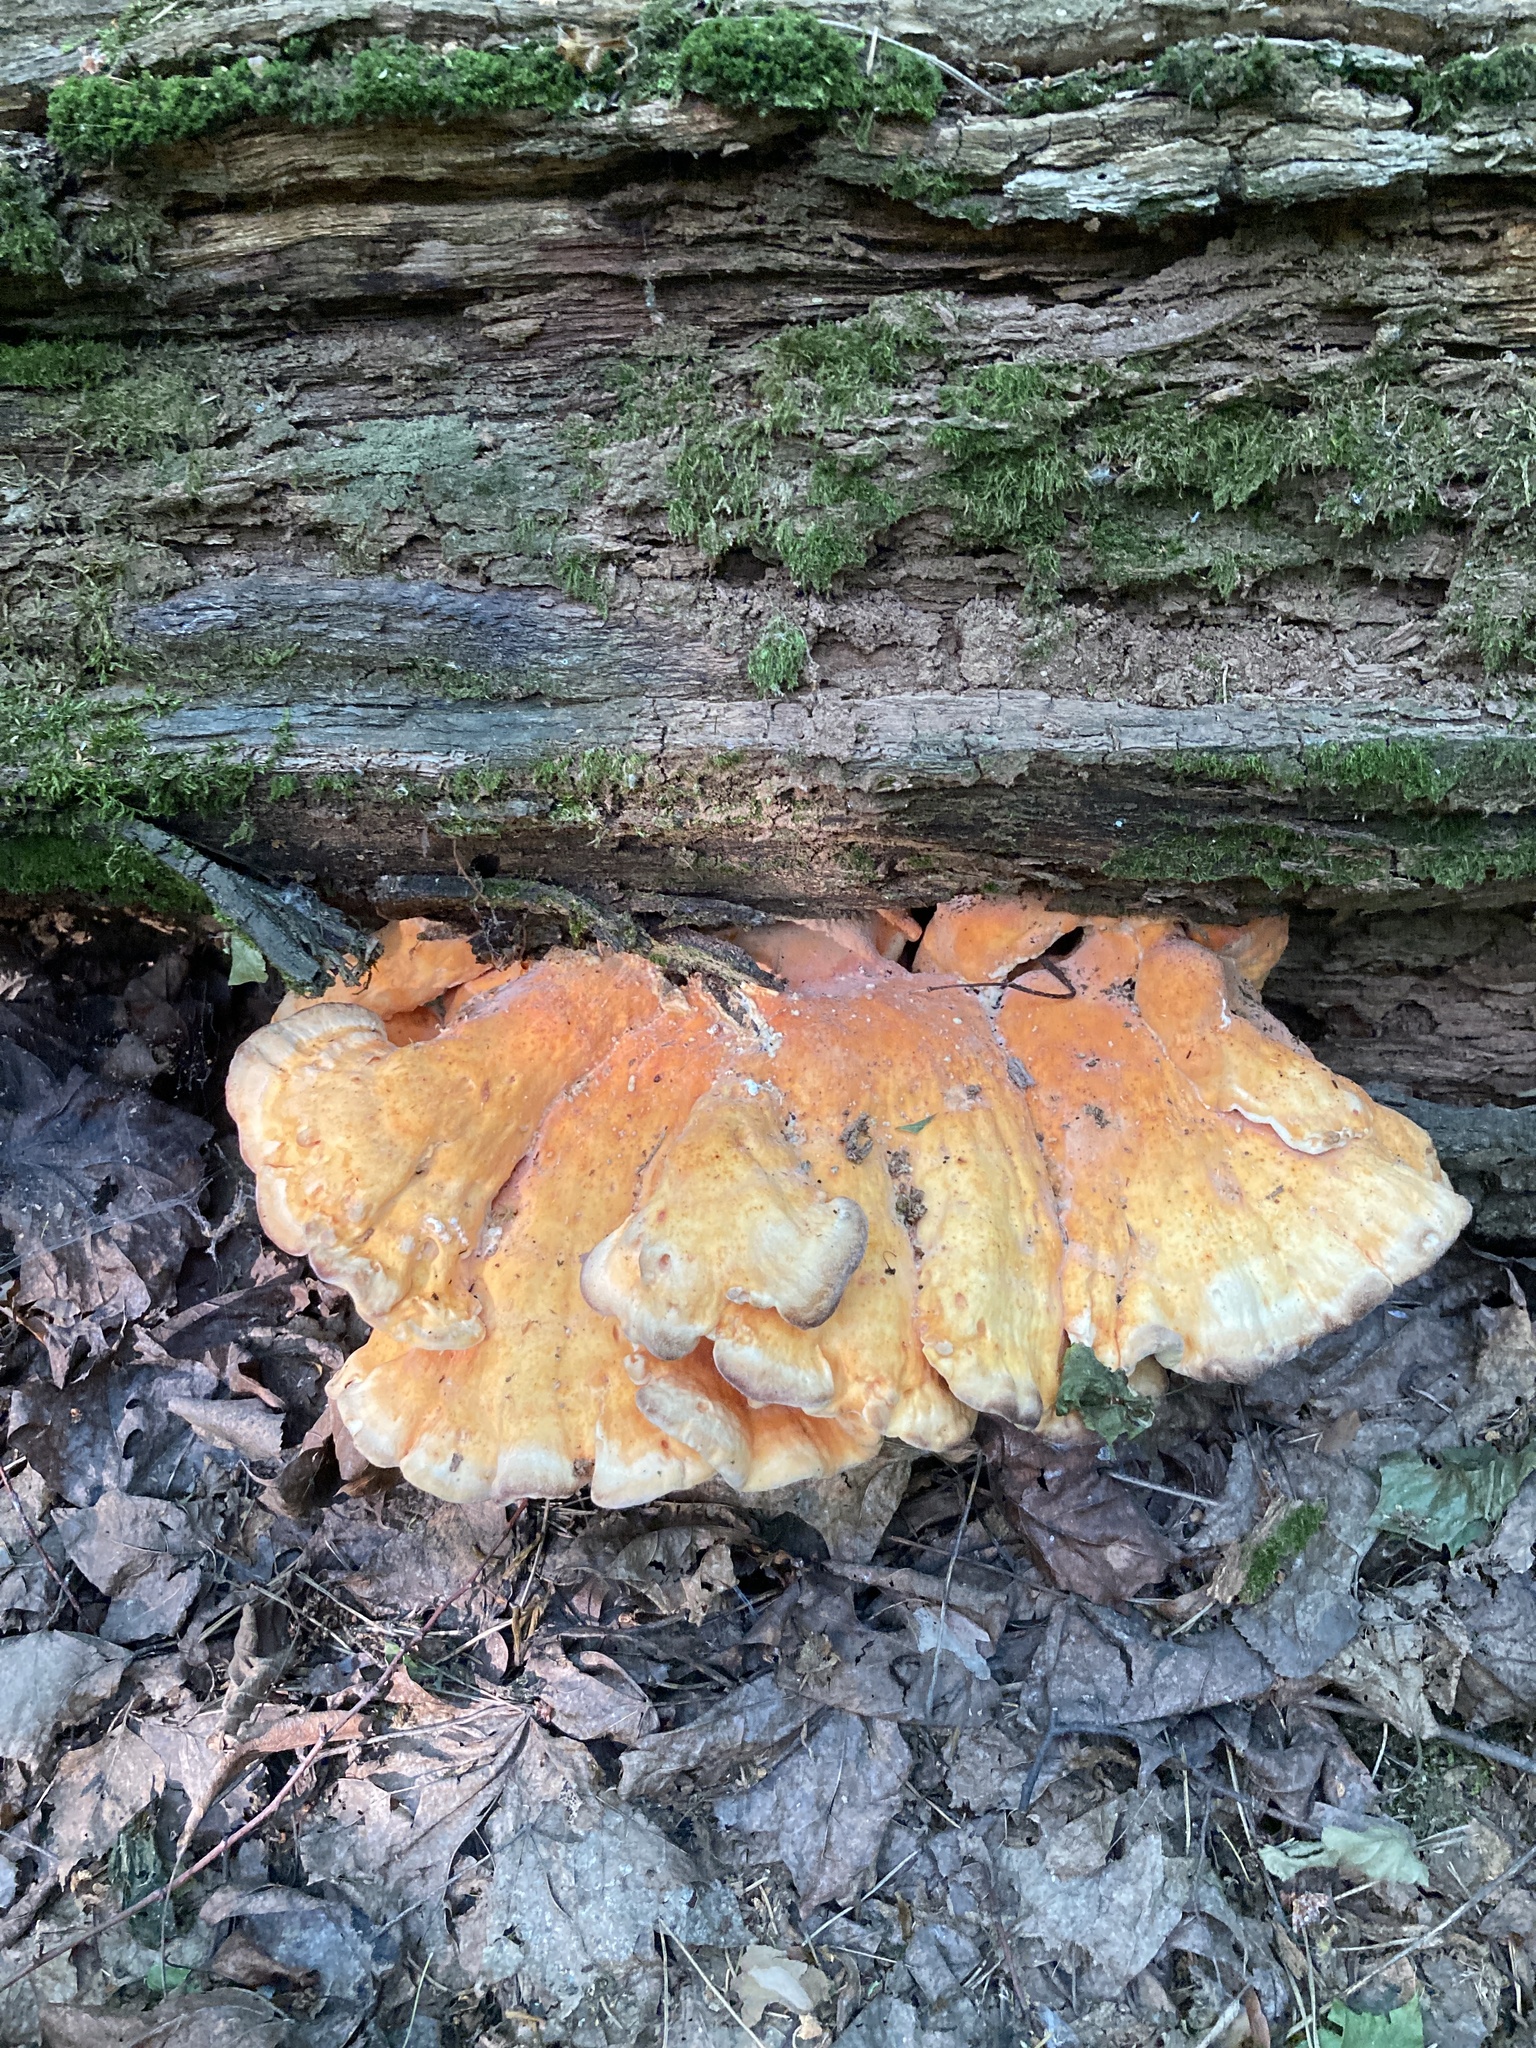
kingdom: Fungi
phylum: Basidiomycota
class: Agaricomycetes
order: Polyporales
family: Laetiporaceae
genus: Laetiporus
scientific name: Laetiporus sulphureus
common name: Chicken of the woods
